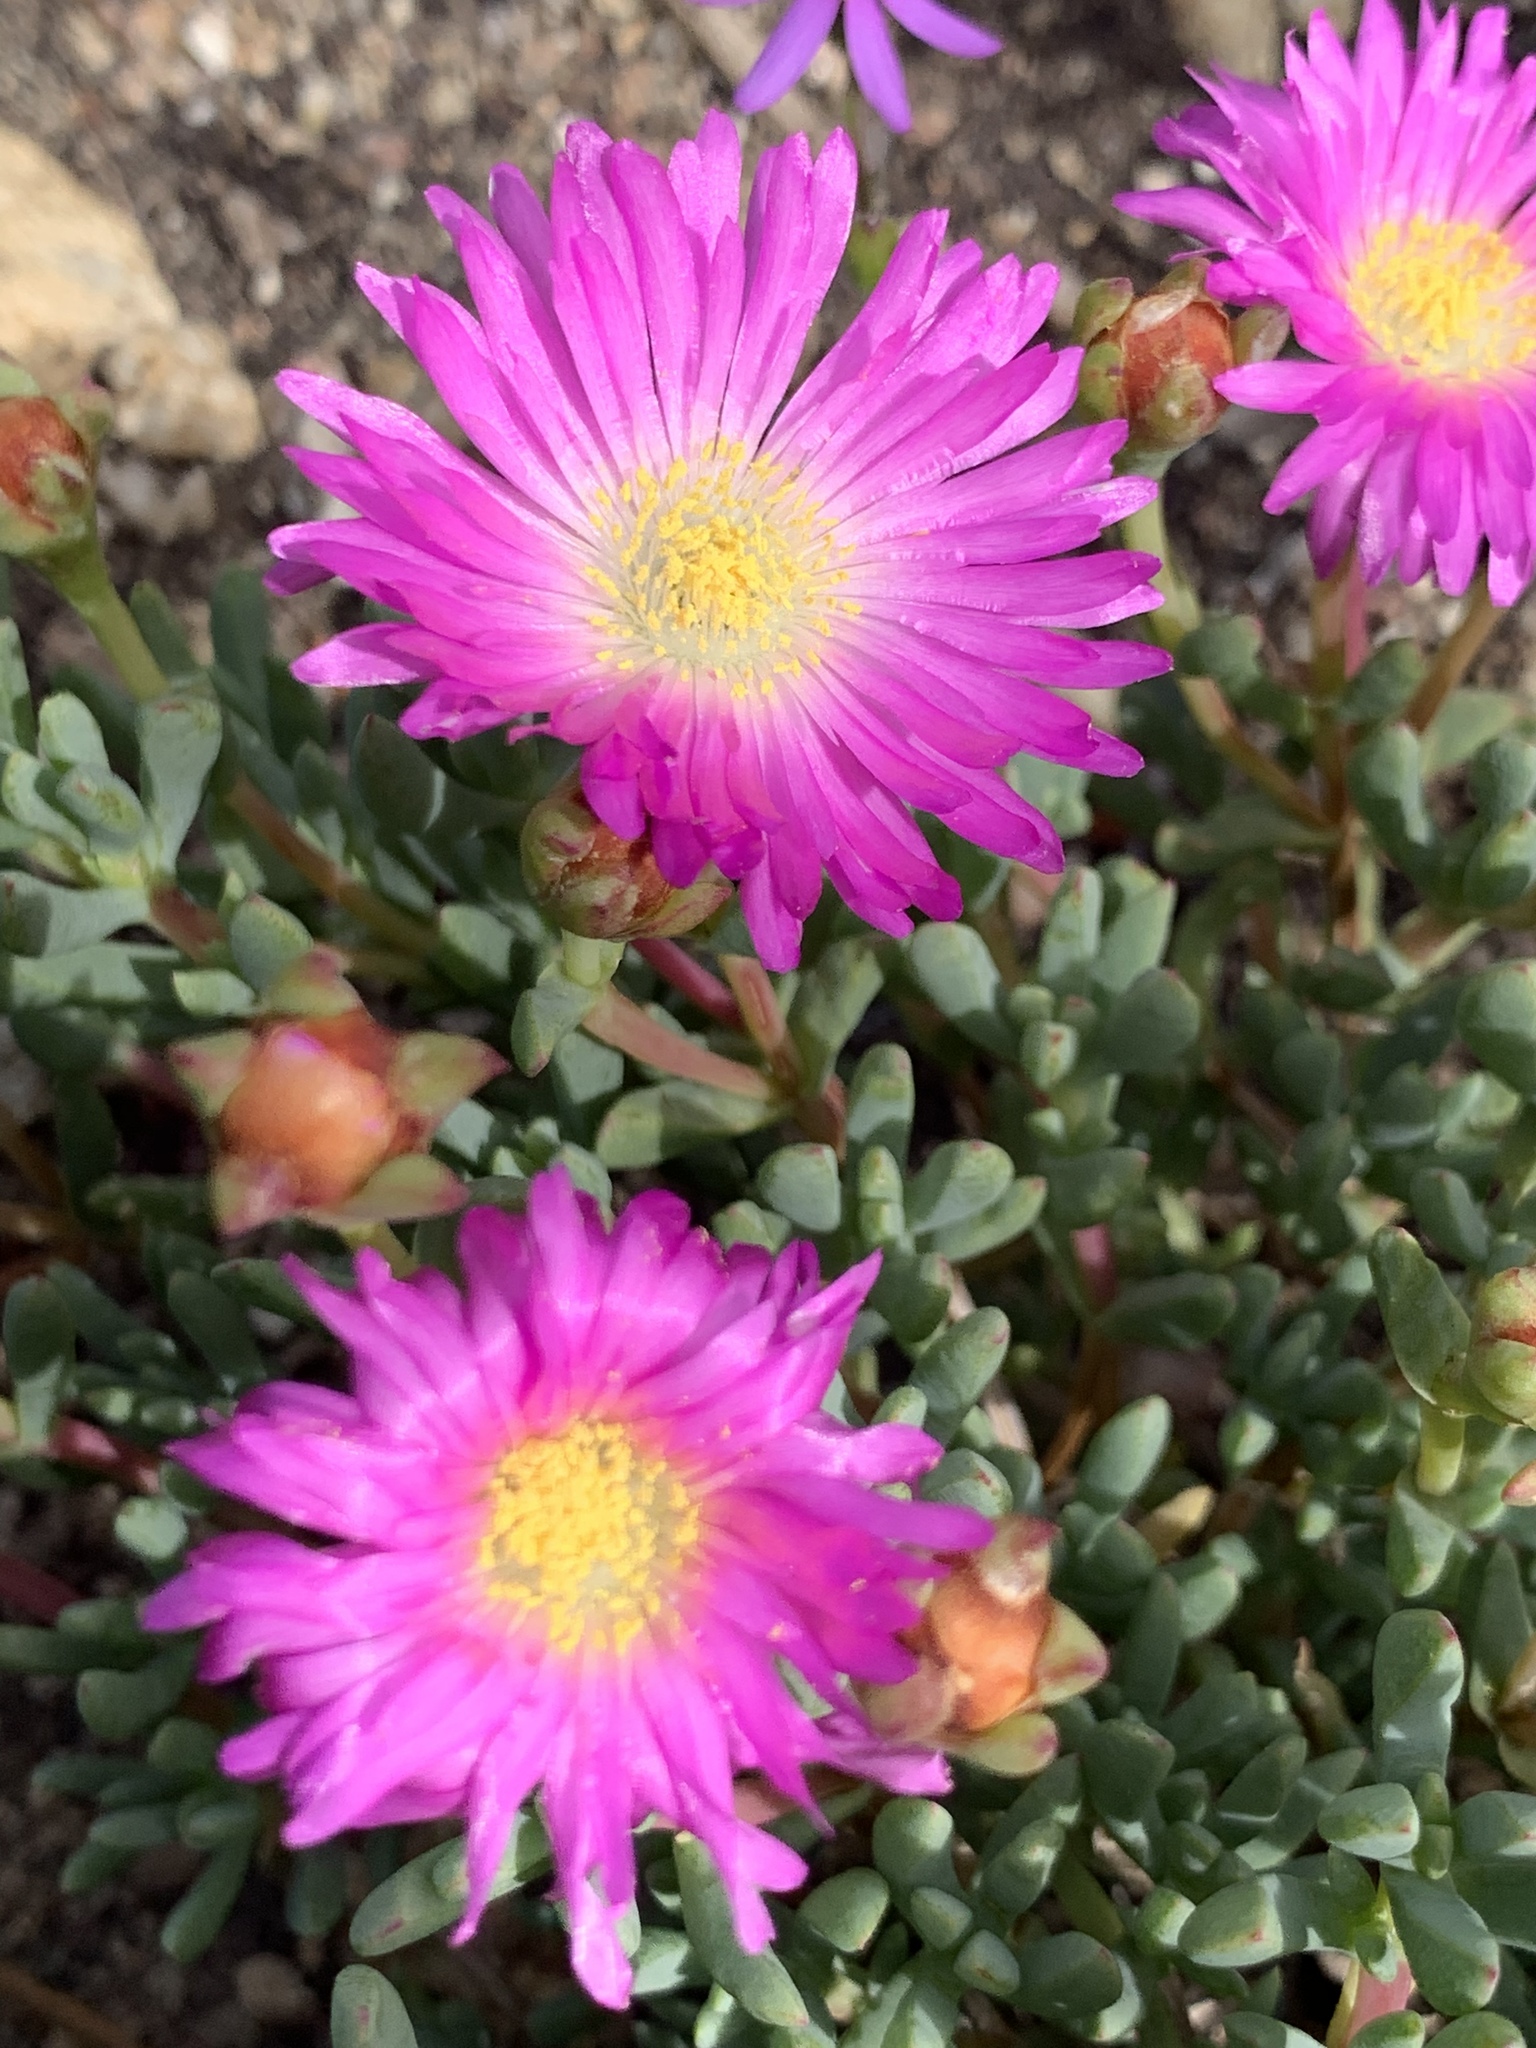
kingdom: Plantae
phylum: Tracheophyta
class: Magnoliopsida
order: Caryophyllales
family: Aizoaceae
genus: Oscularia
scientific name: Oscularia falciformis
